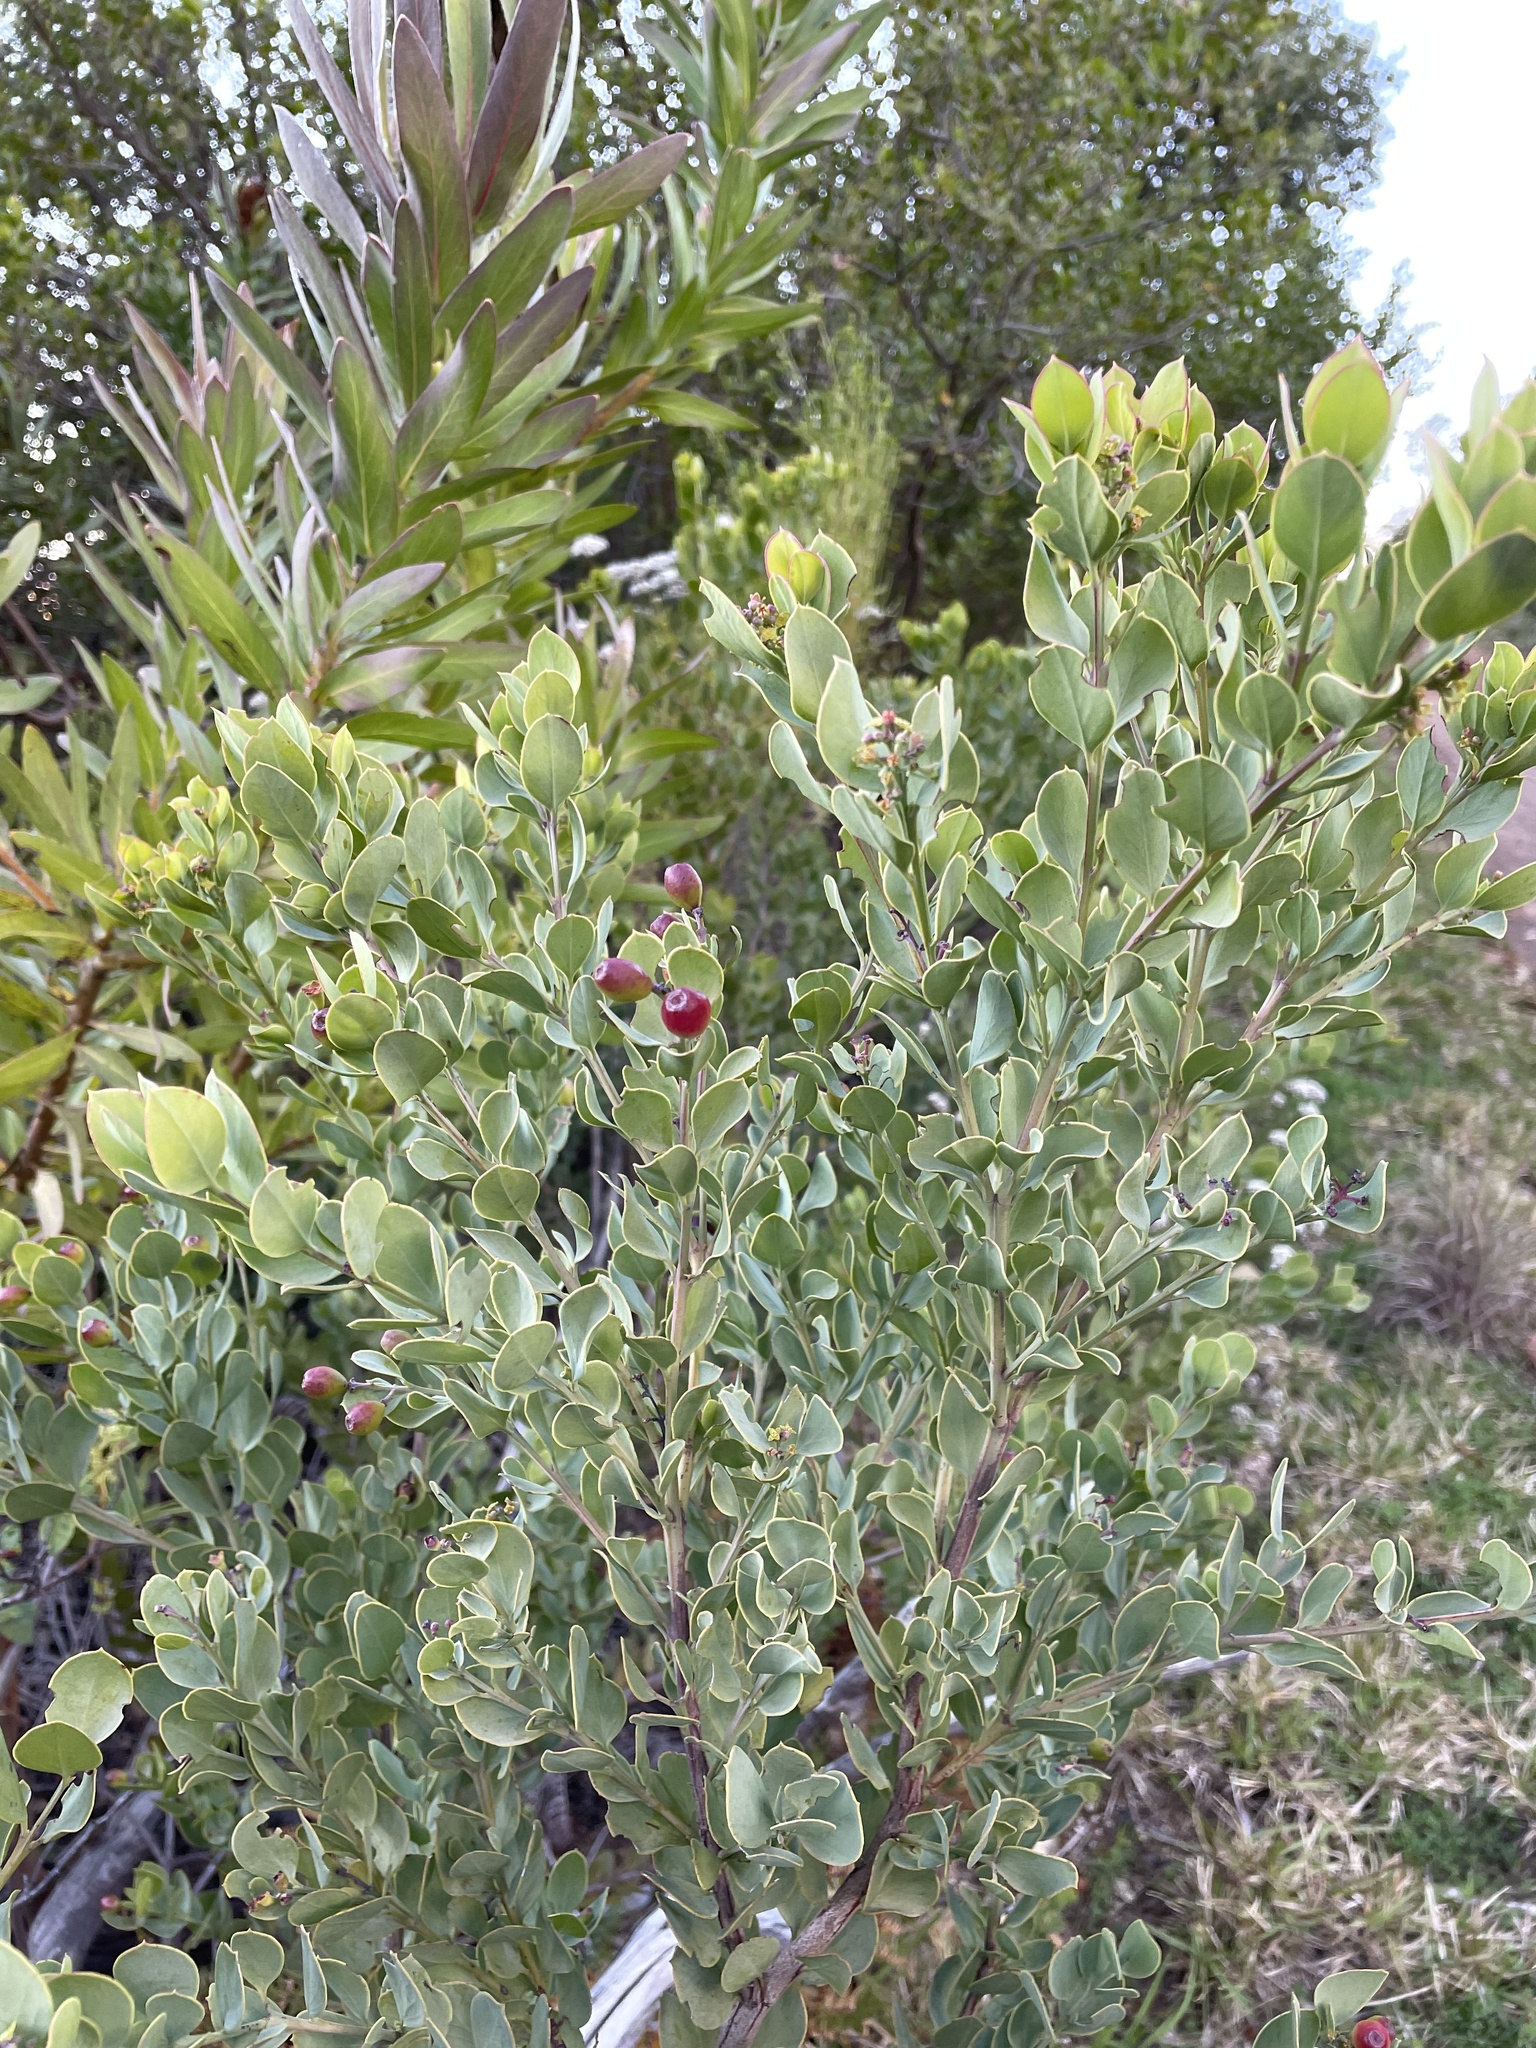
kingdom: Plantae
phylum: Tracheophyta
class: Magnoliopsida
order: Santalales
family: Santalaceae
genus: Osyris
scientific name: Osyris compressa
